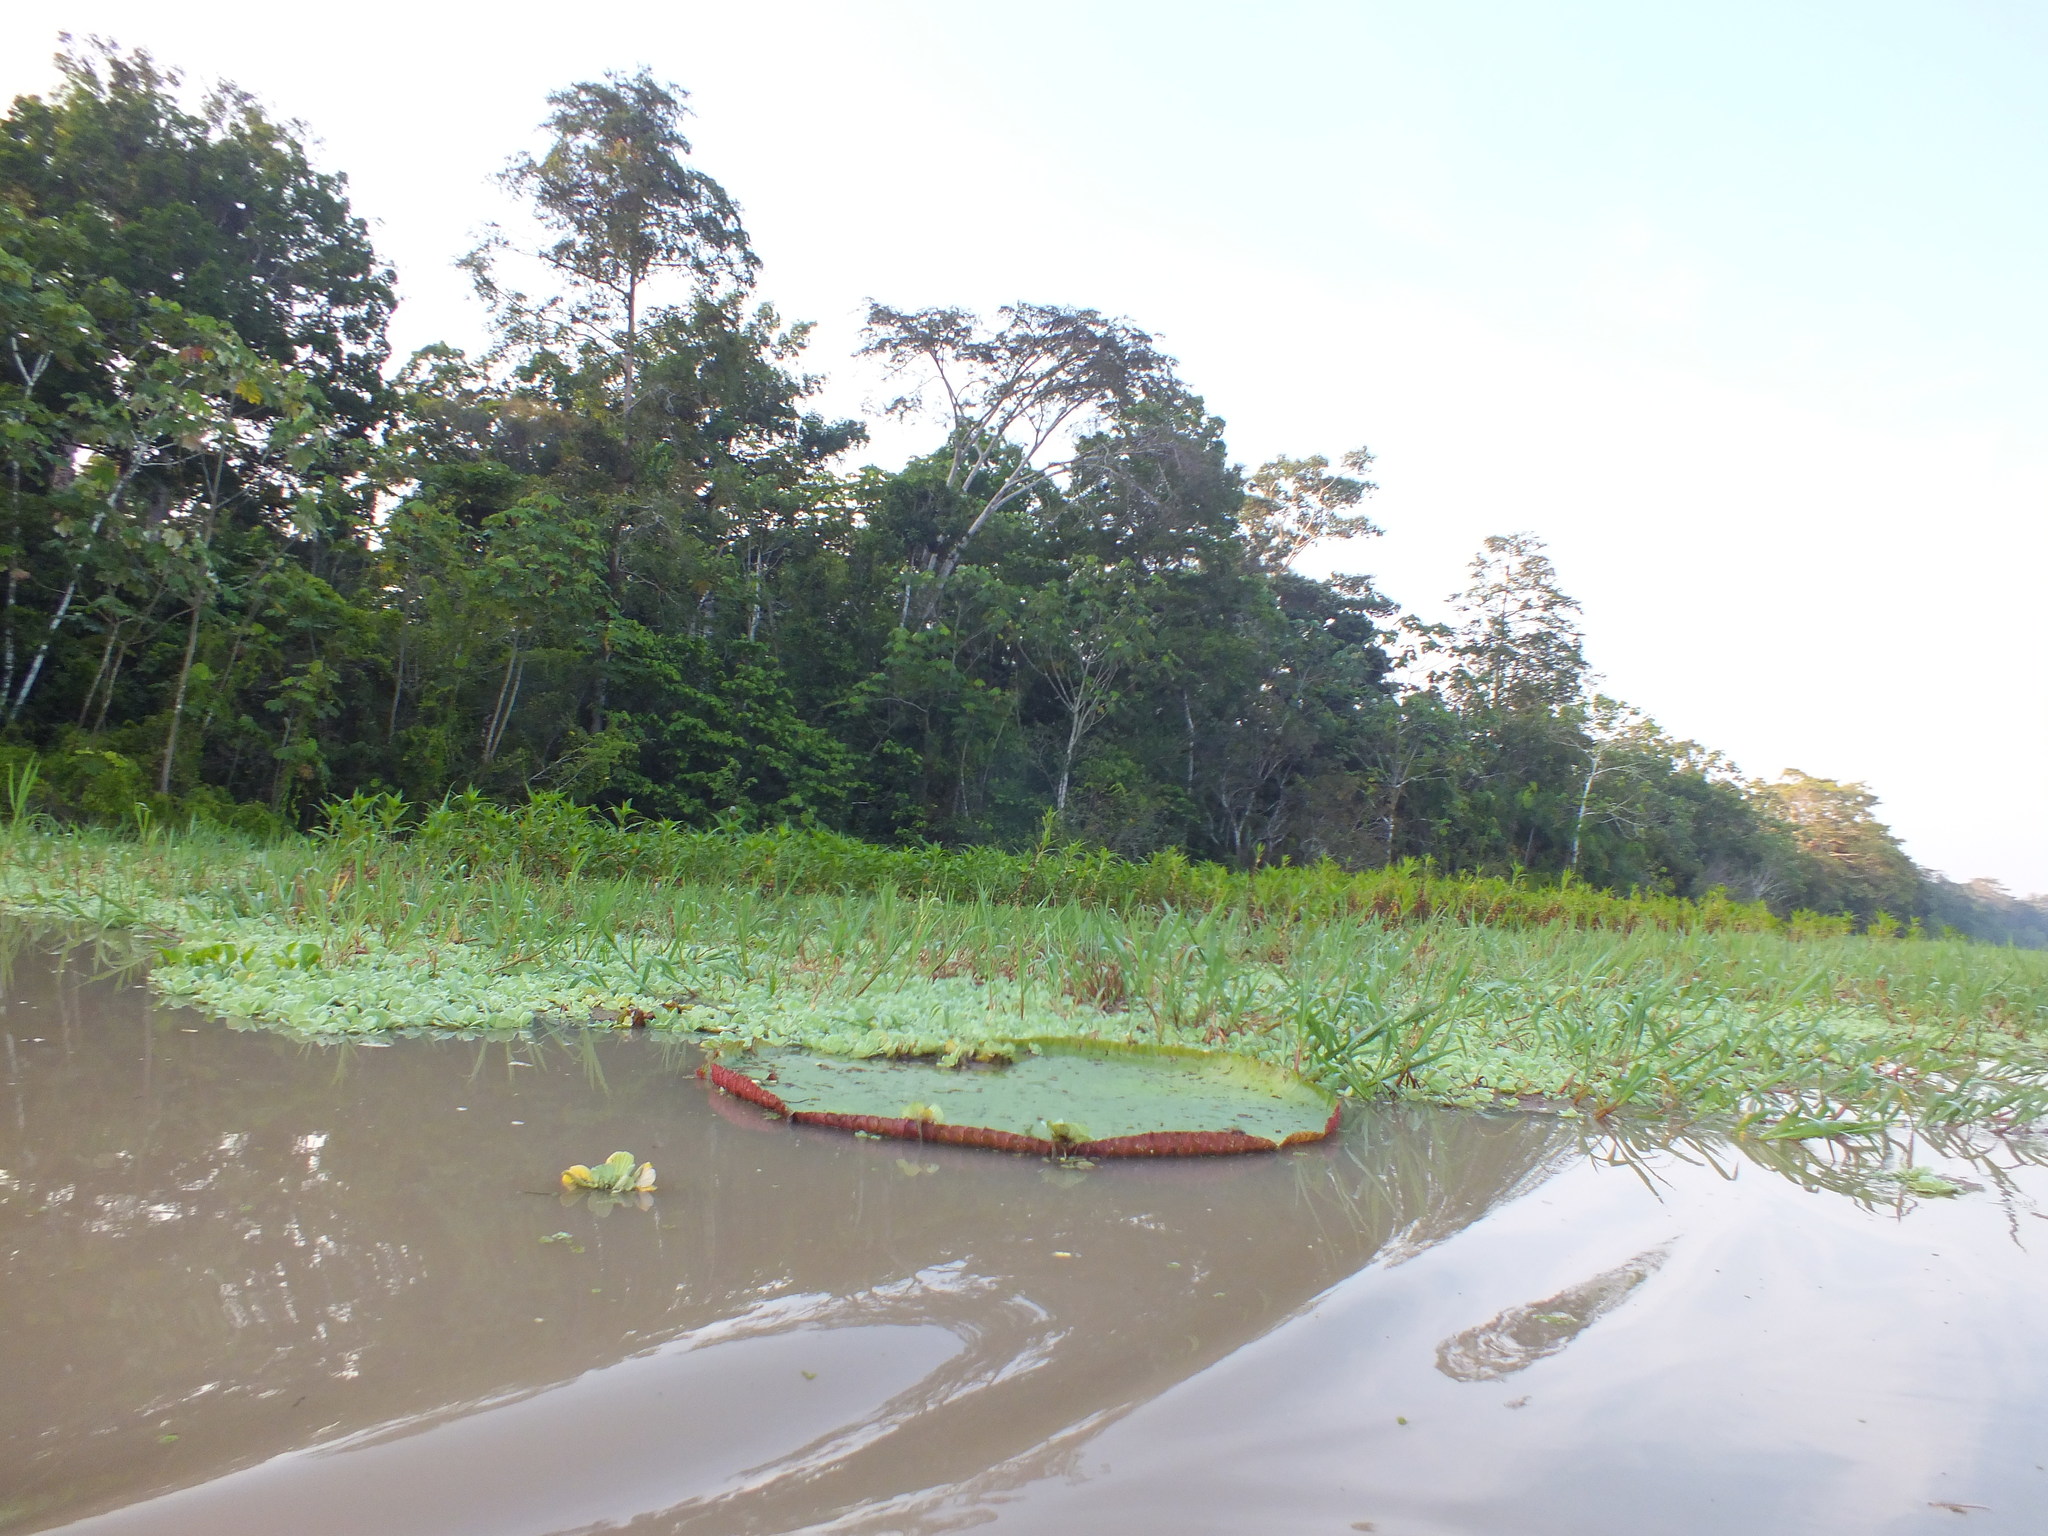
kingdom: Plantae
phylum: Tracheophyta
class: Magnoliopsida
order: Nymphaeales
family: Nymphaeaceae
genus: Victoria
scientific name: Victoria amazonica
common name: Amazon water-lily
